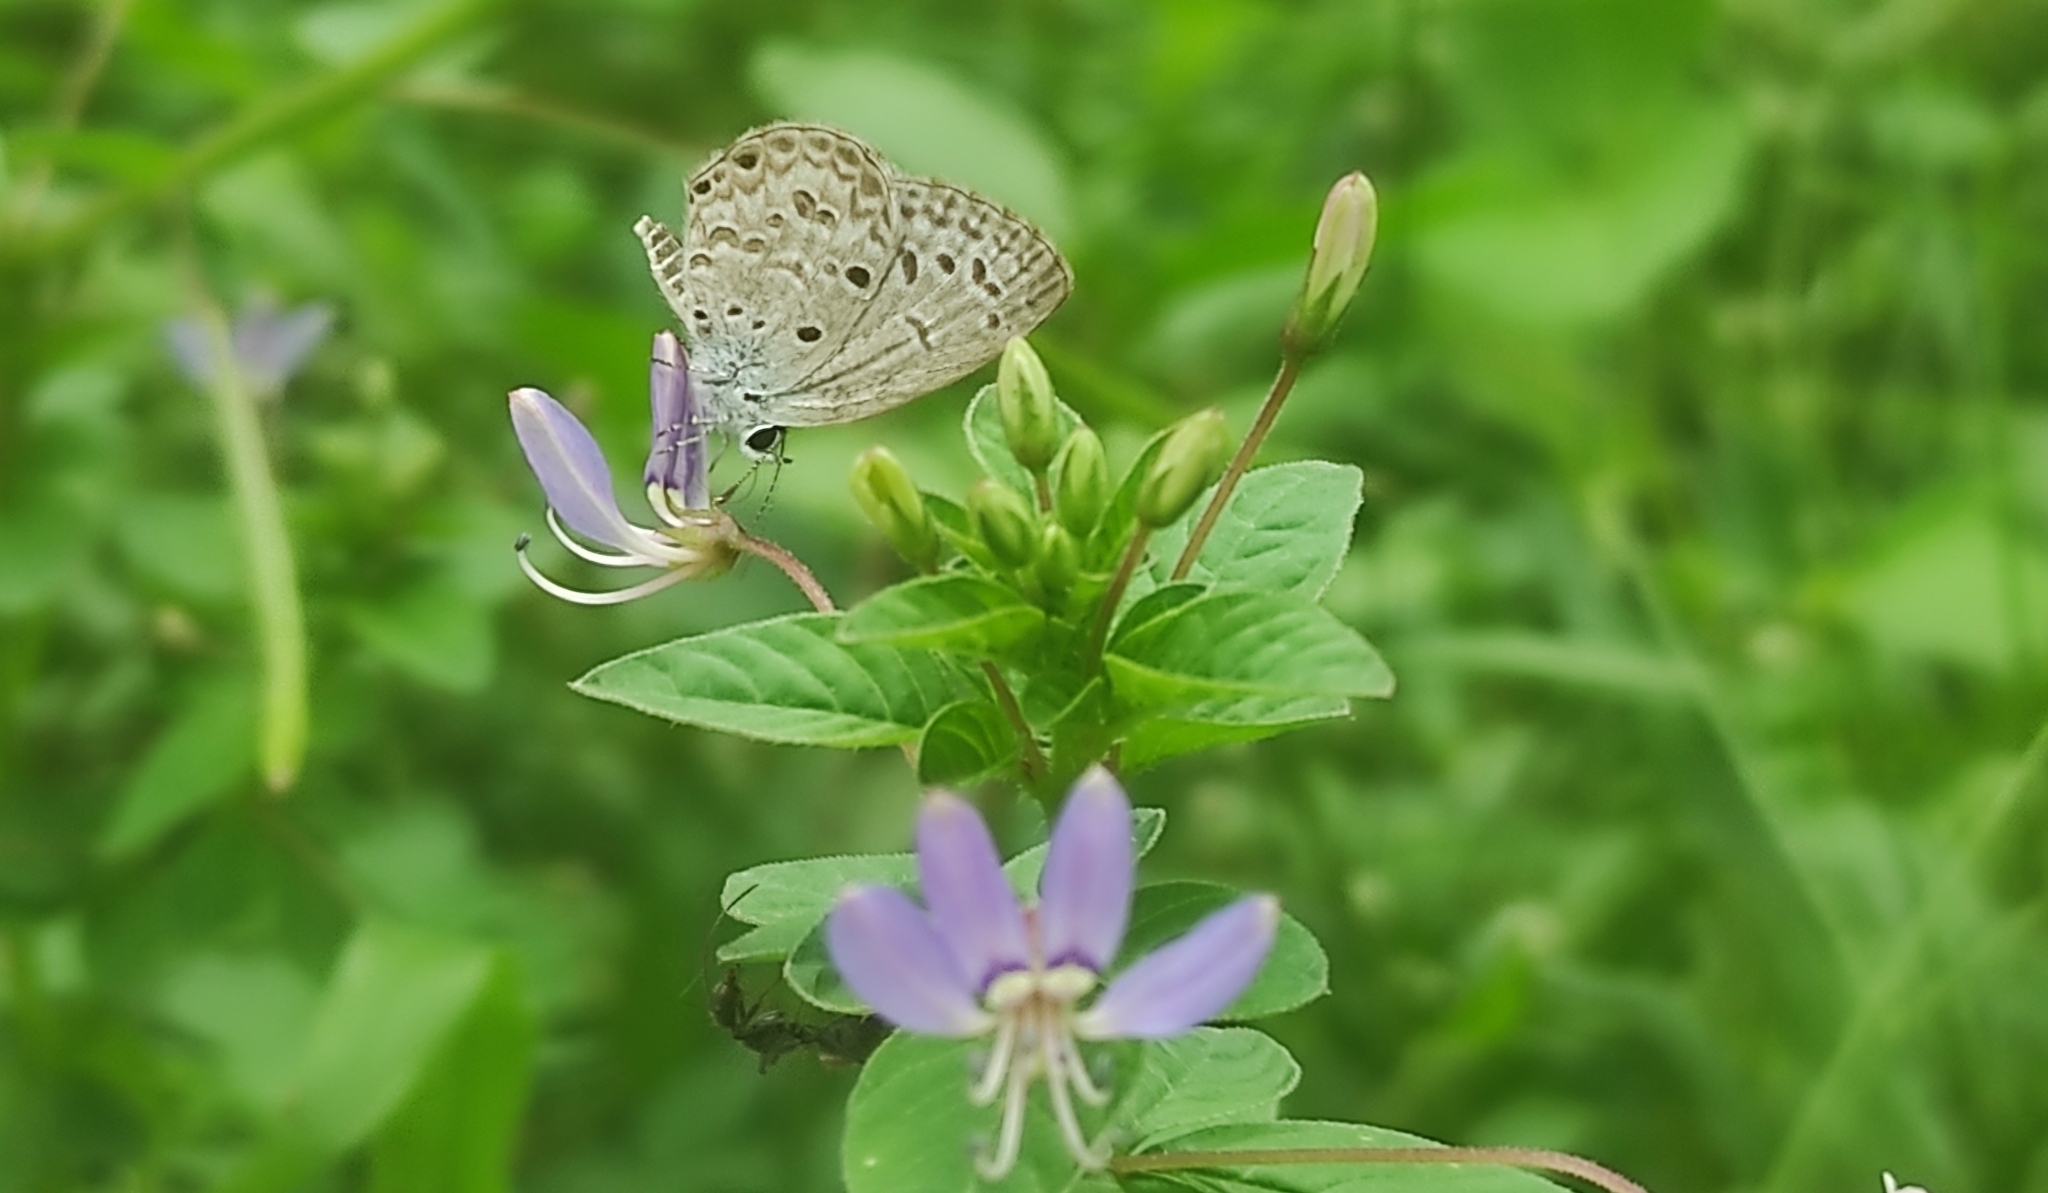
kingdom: Animalia
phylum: Arthropoda
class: Insecta
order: Lepidoptera
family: Lycaenidae
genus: Chilades
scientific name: Chilades laius
